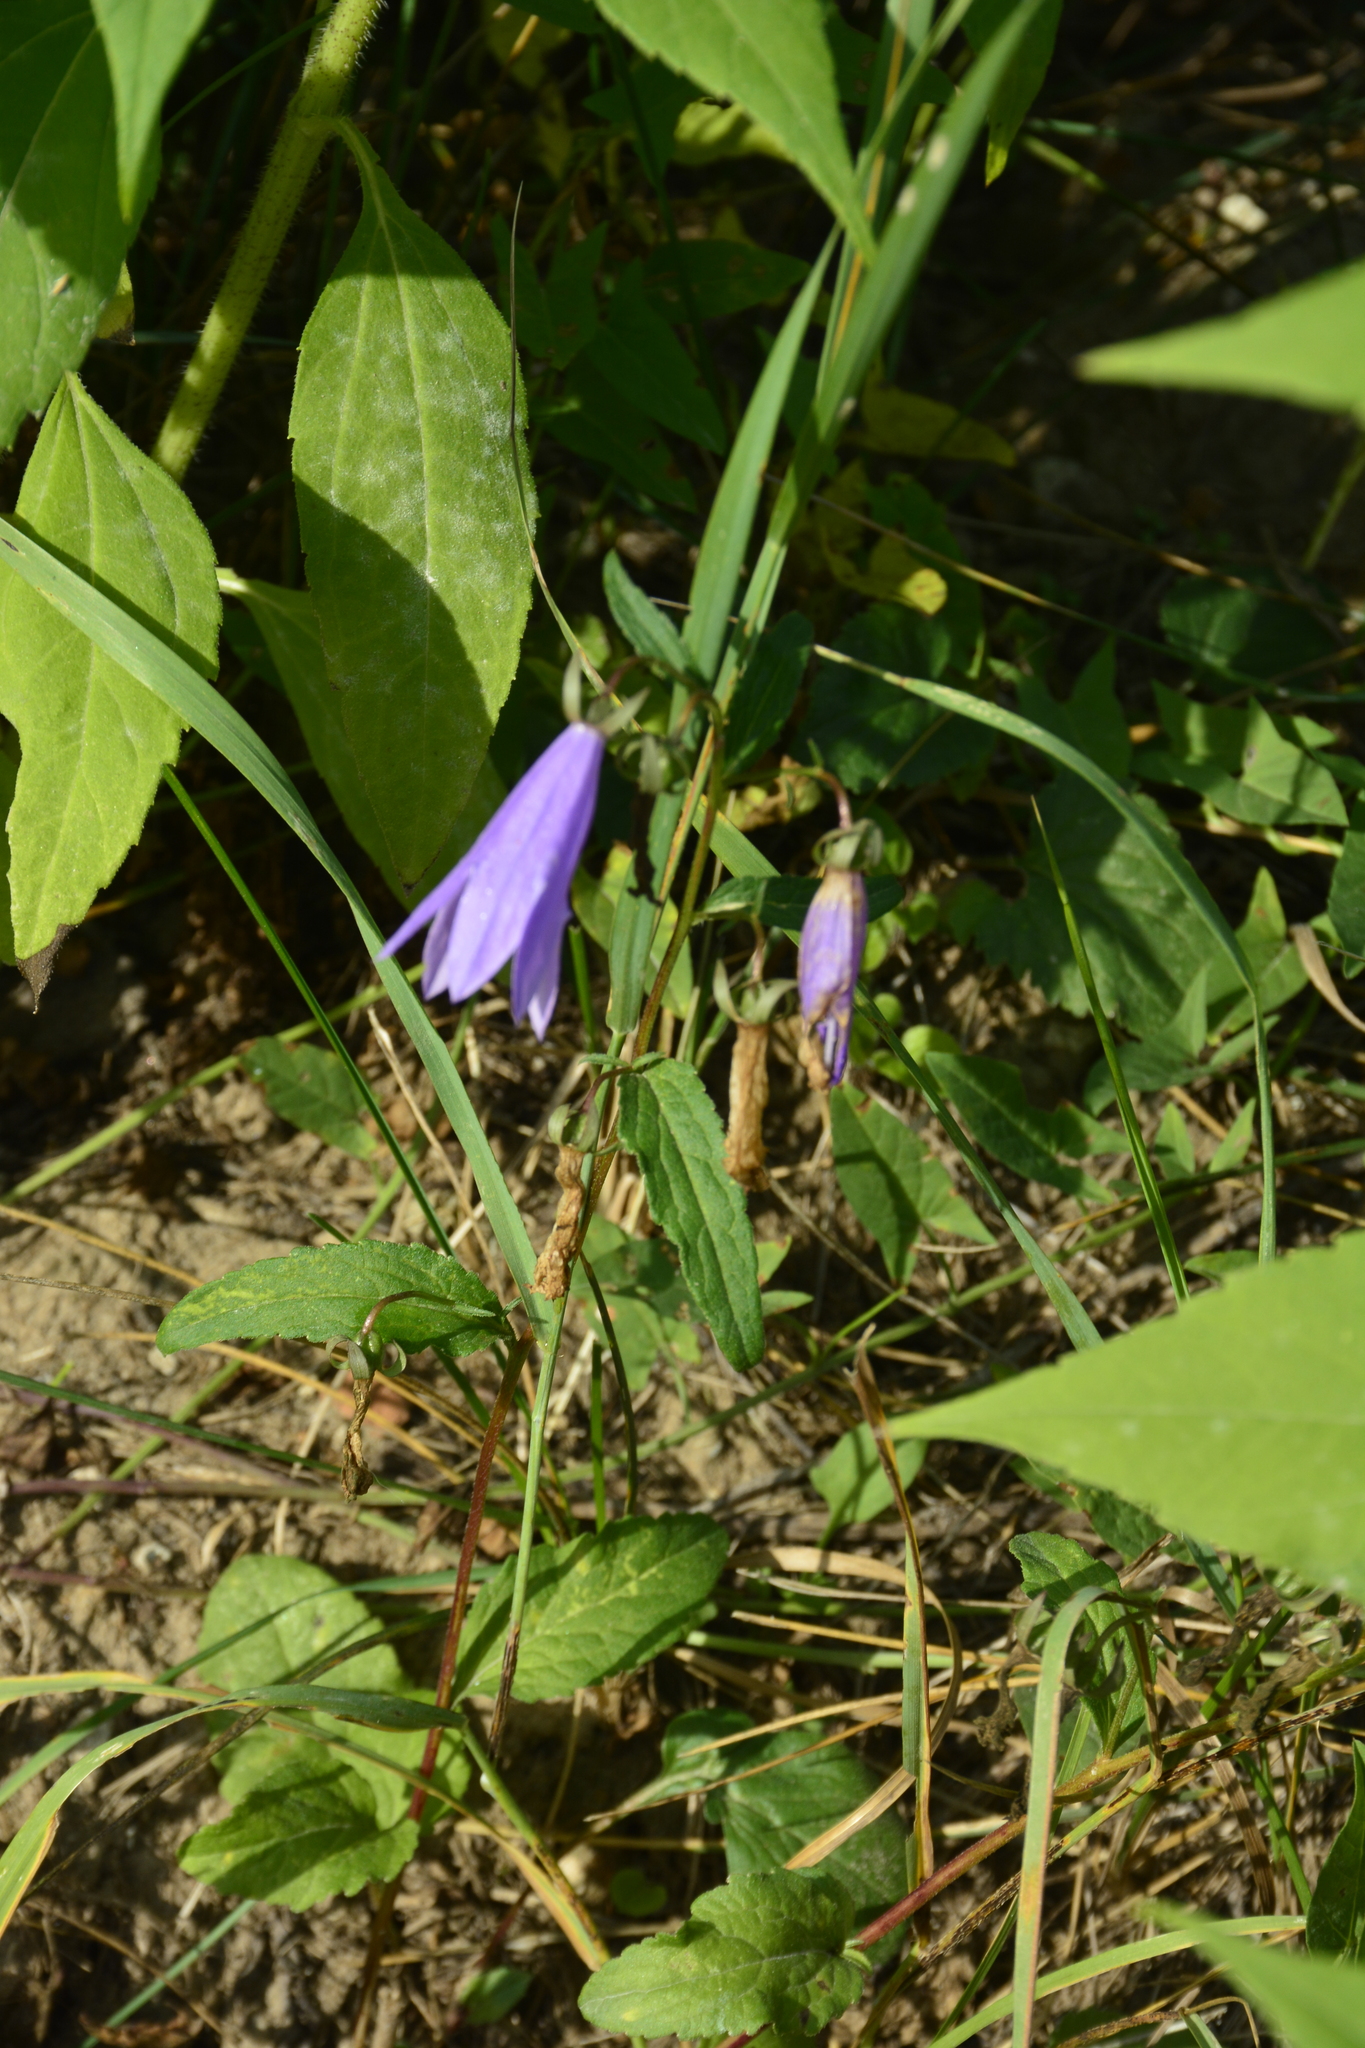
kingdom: Plantae
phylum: Tracheophyta
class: Magnoliopsida
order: Asterales
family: Campanulaceae
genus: Campanula
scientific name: Campanula rapunculoides
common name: Creeping bellflower
